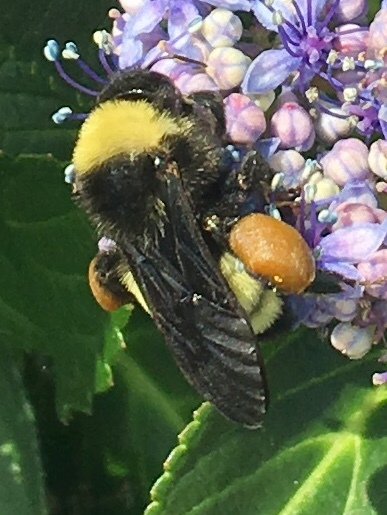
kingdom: Animalia
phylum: Arthropoda
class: Insecta
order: Hymenoptera
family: Apidae
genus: Bombus
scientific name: Bombus pensylvanicus
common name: Bumble bee
